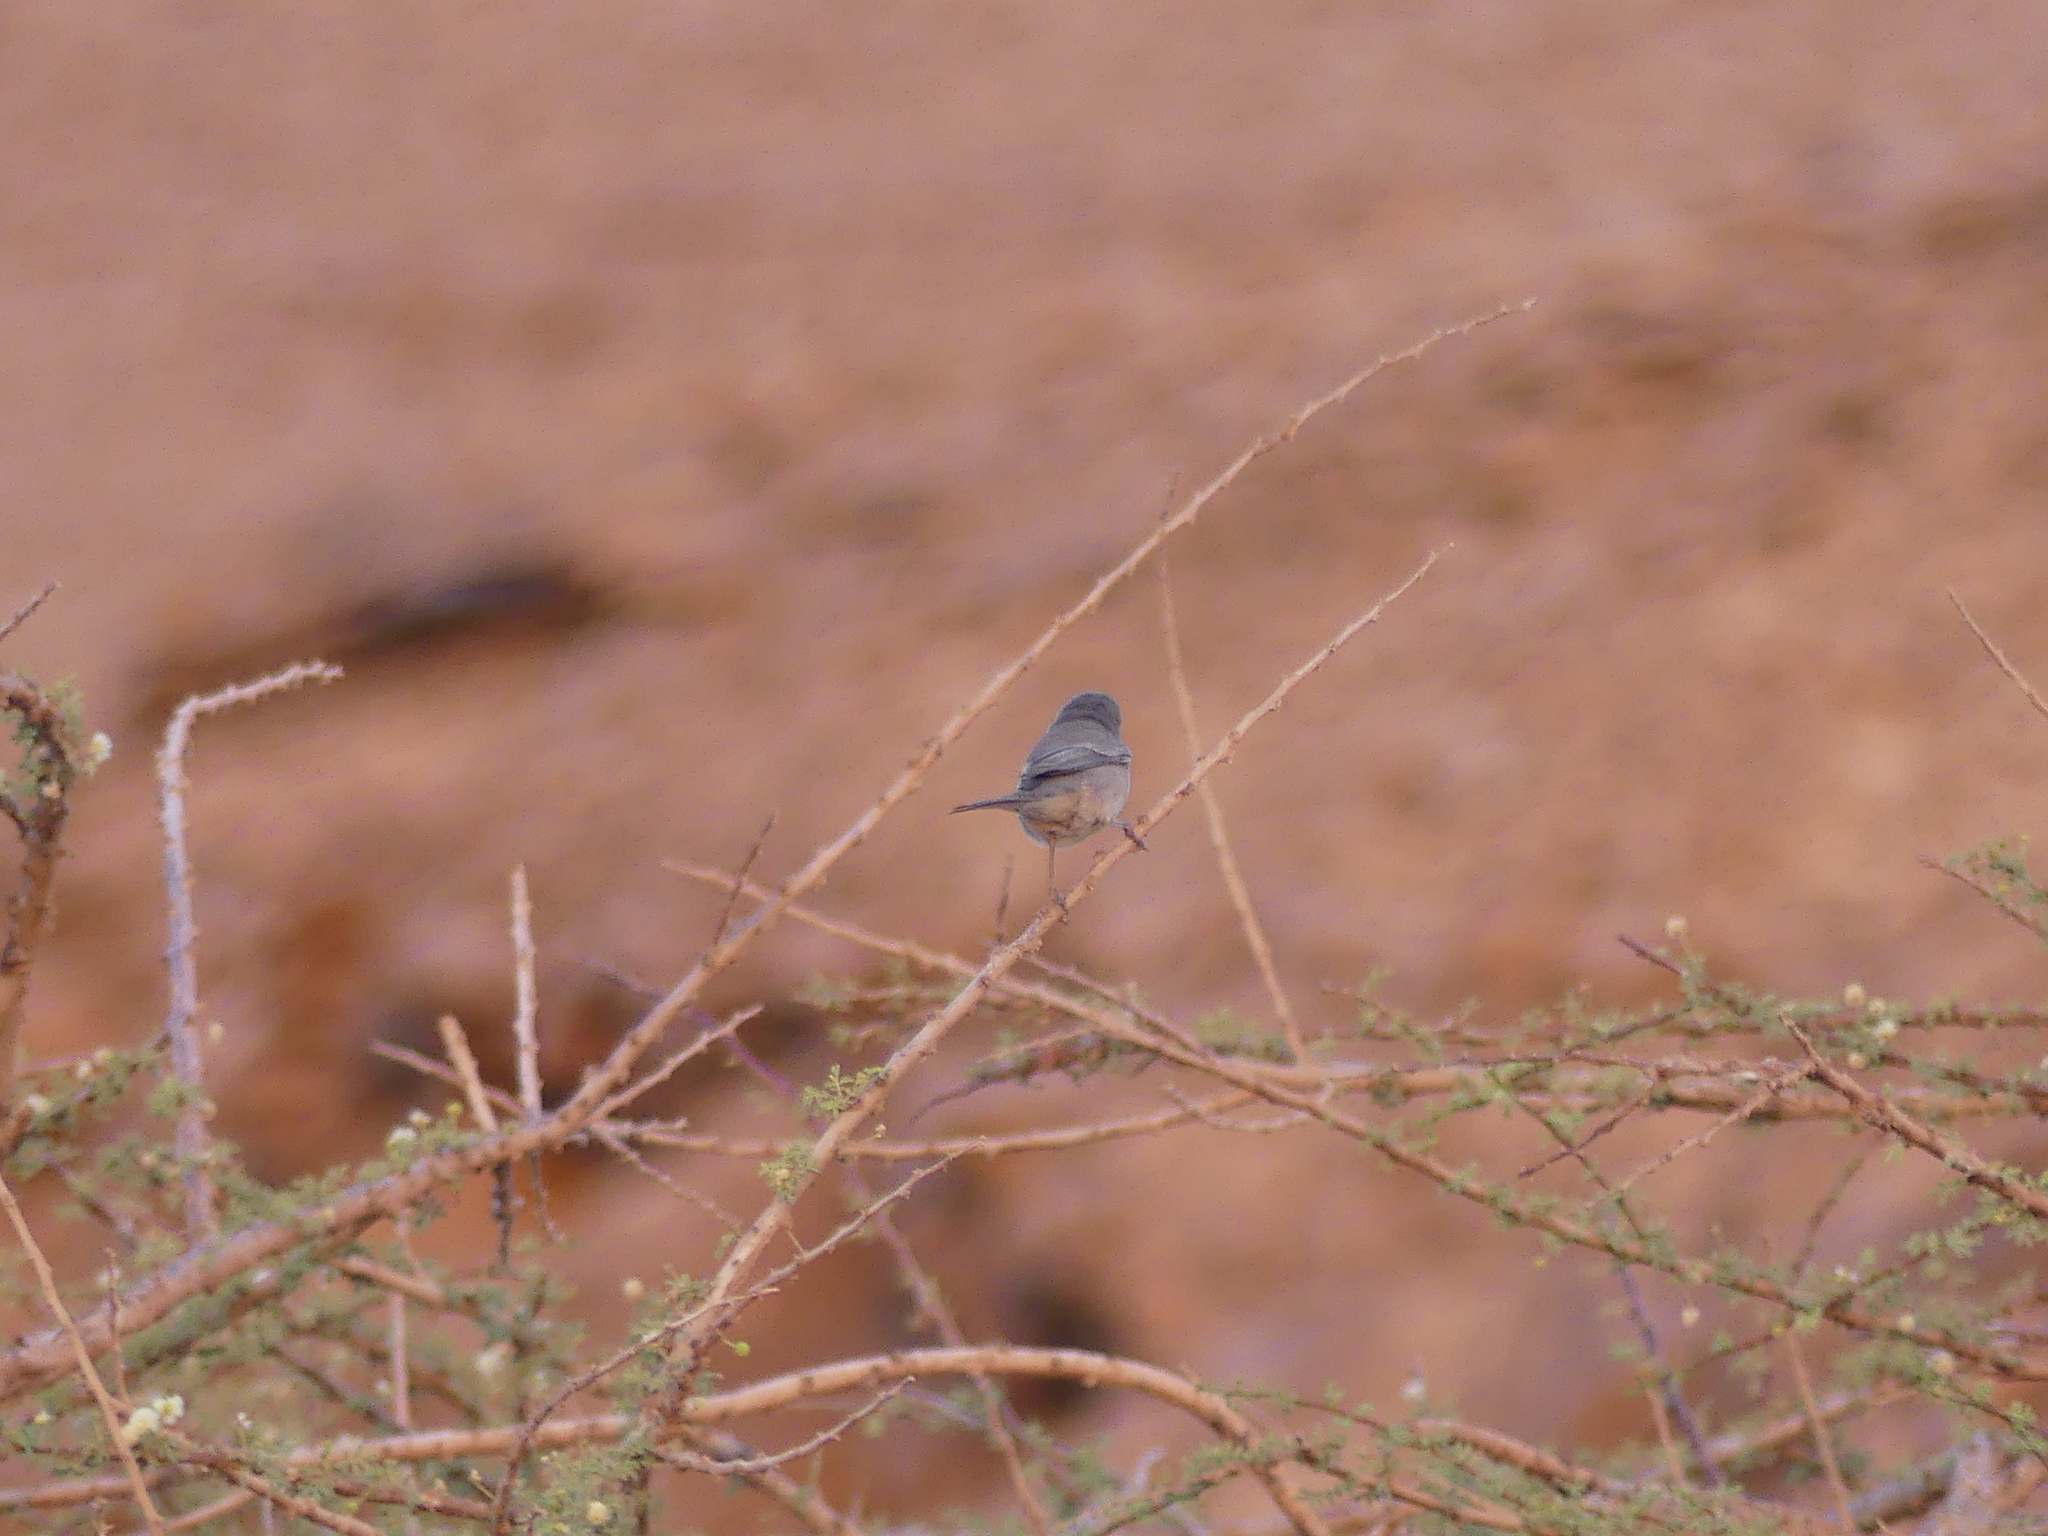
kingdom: Animalia
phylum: Chordata
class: Aves
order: Passeriformes
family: Sylviidae
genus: Sylvia
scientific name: Sylvia ruppeli
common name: Rüppell's warbler
